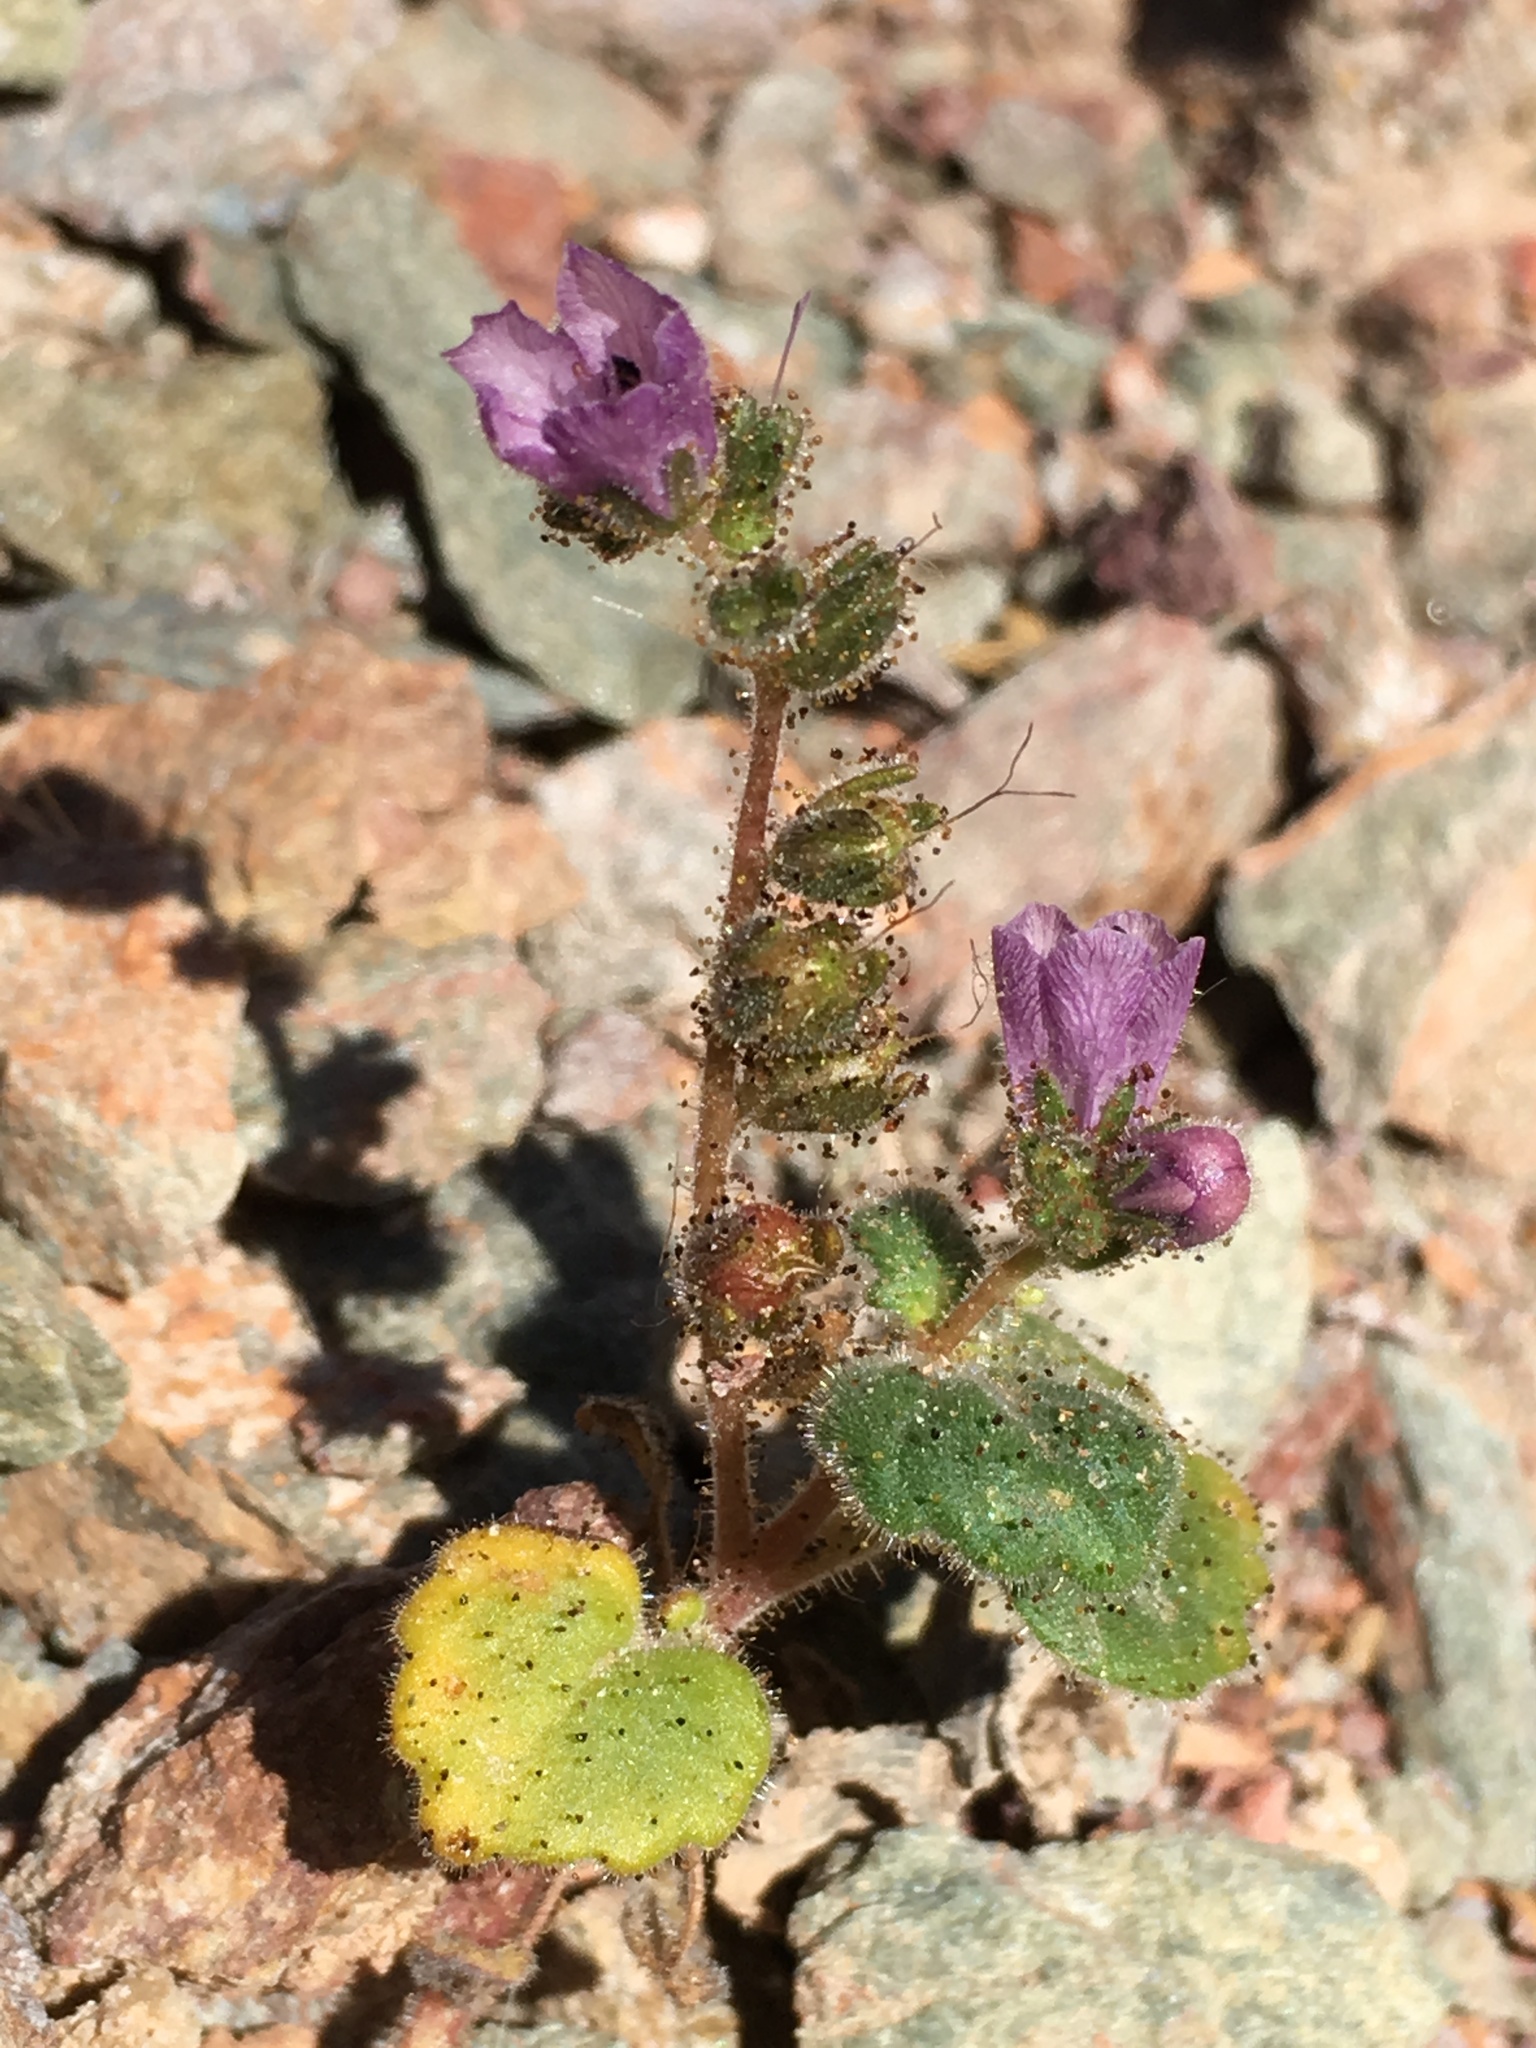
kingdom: Plantae
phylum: Tracheophyta
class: Magnoliopsida
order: Boraginales
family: Hydrophyllaceae
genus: Phacelia
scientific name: Phacelia calthifolia
